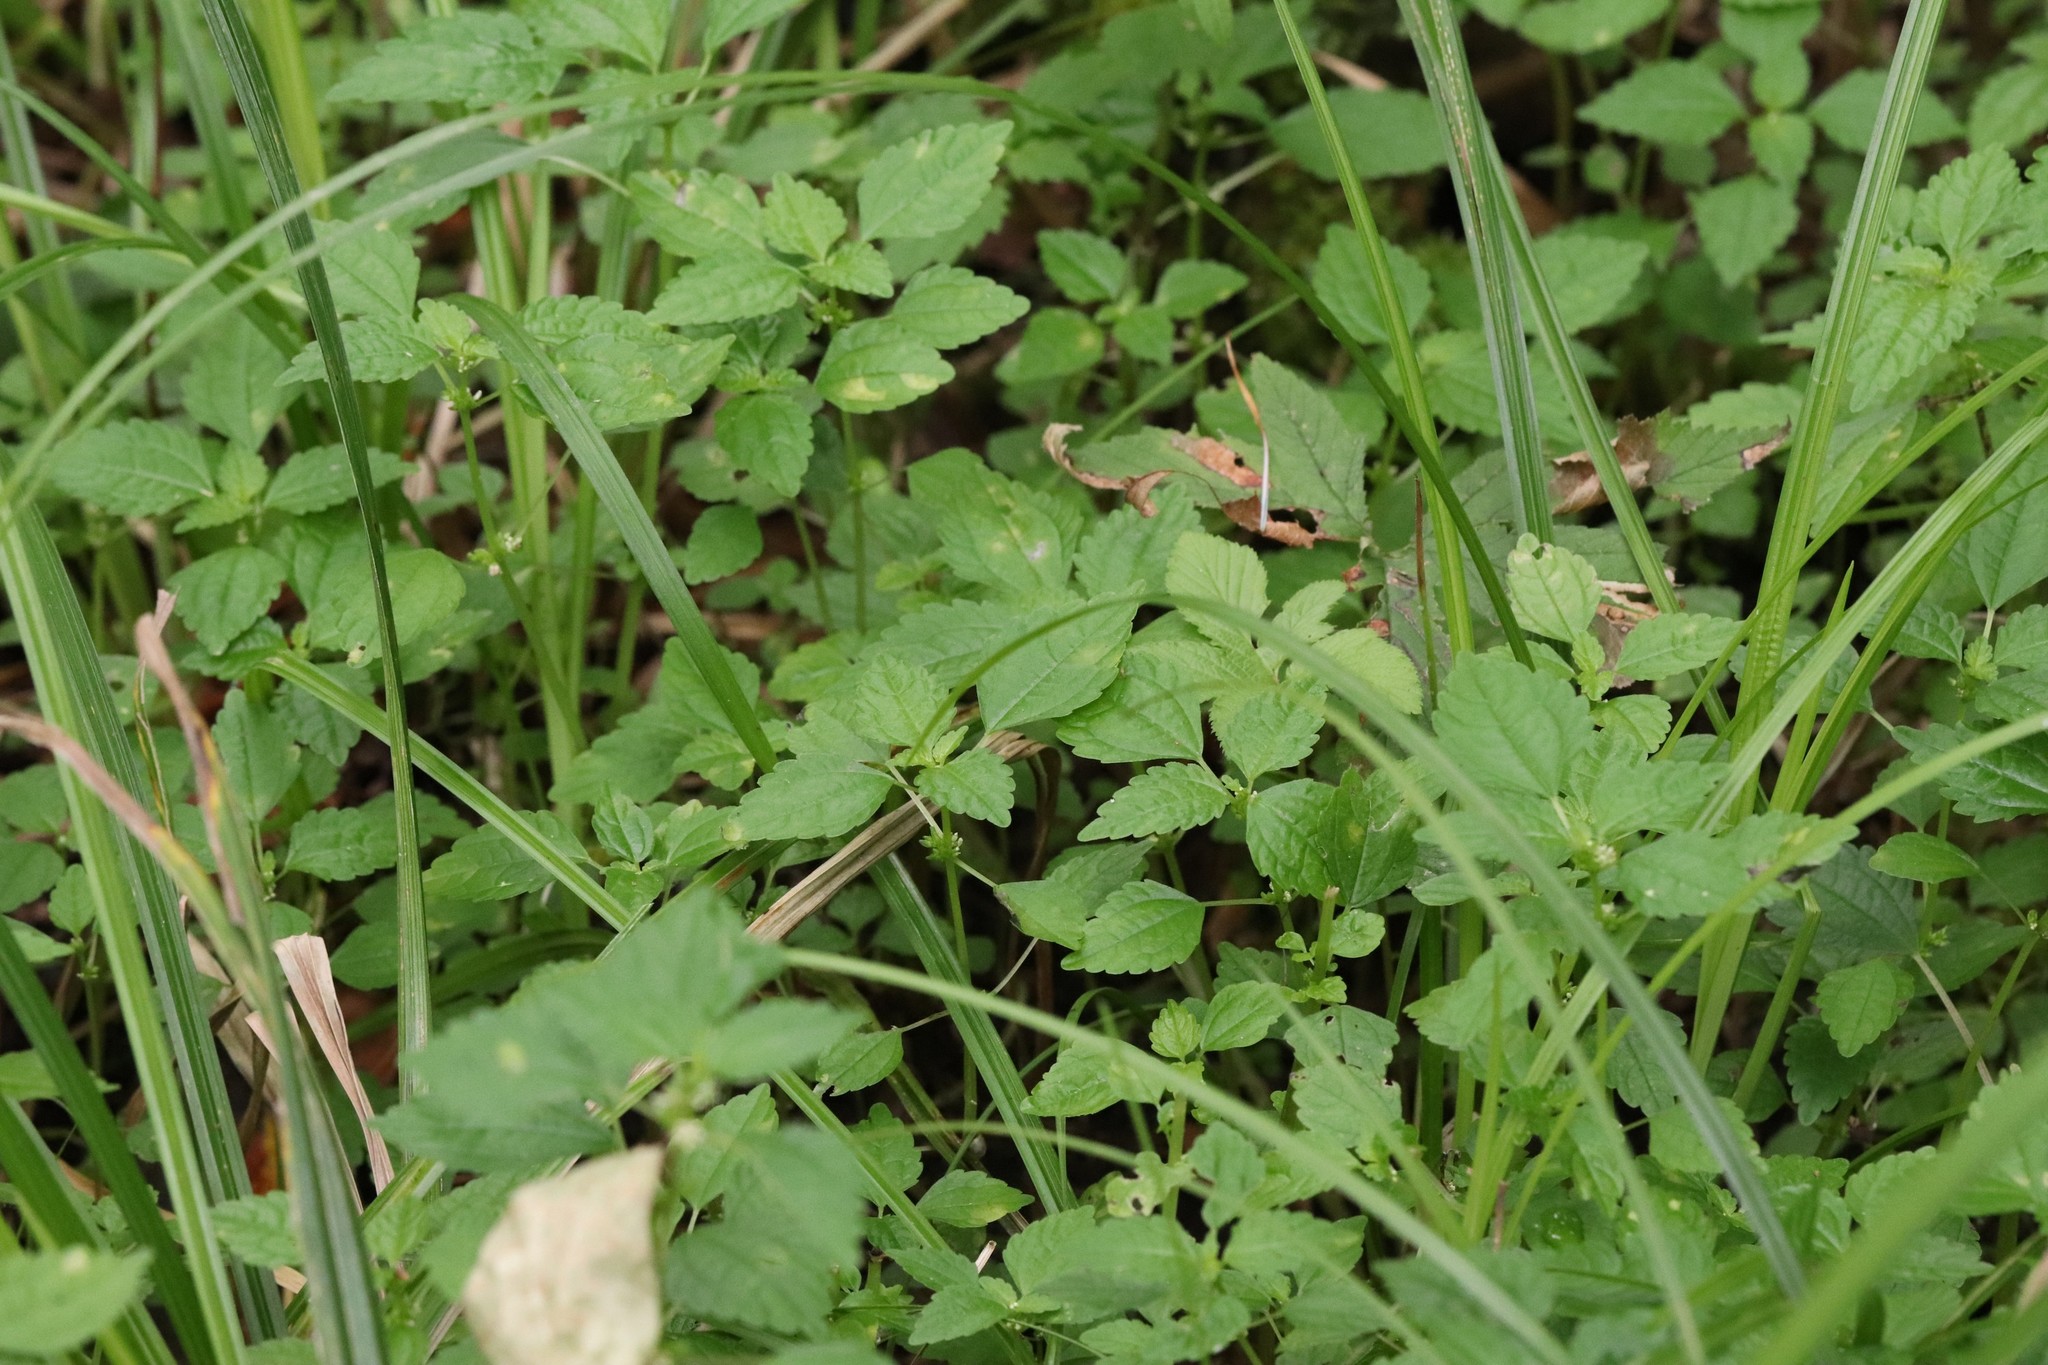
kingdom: Plantae
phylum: Tracheophyta
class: Magnoliopsida
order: Rosales
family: Urticaceae
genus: Pilea
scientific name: Pilea pumila
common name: Clearweed
